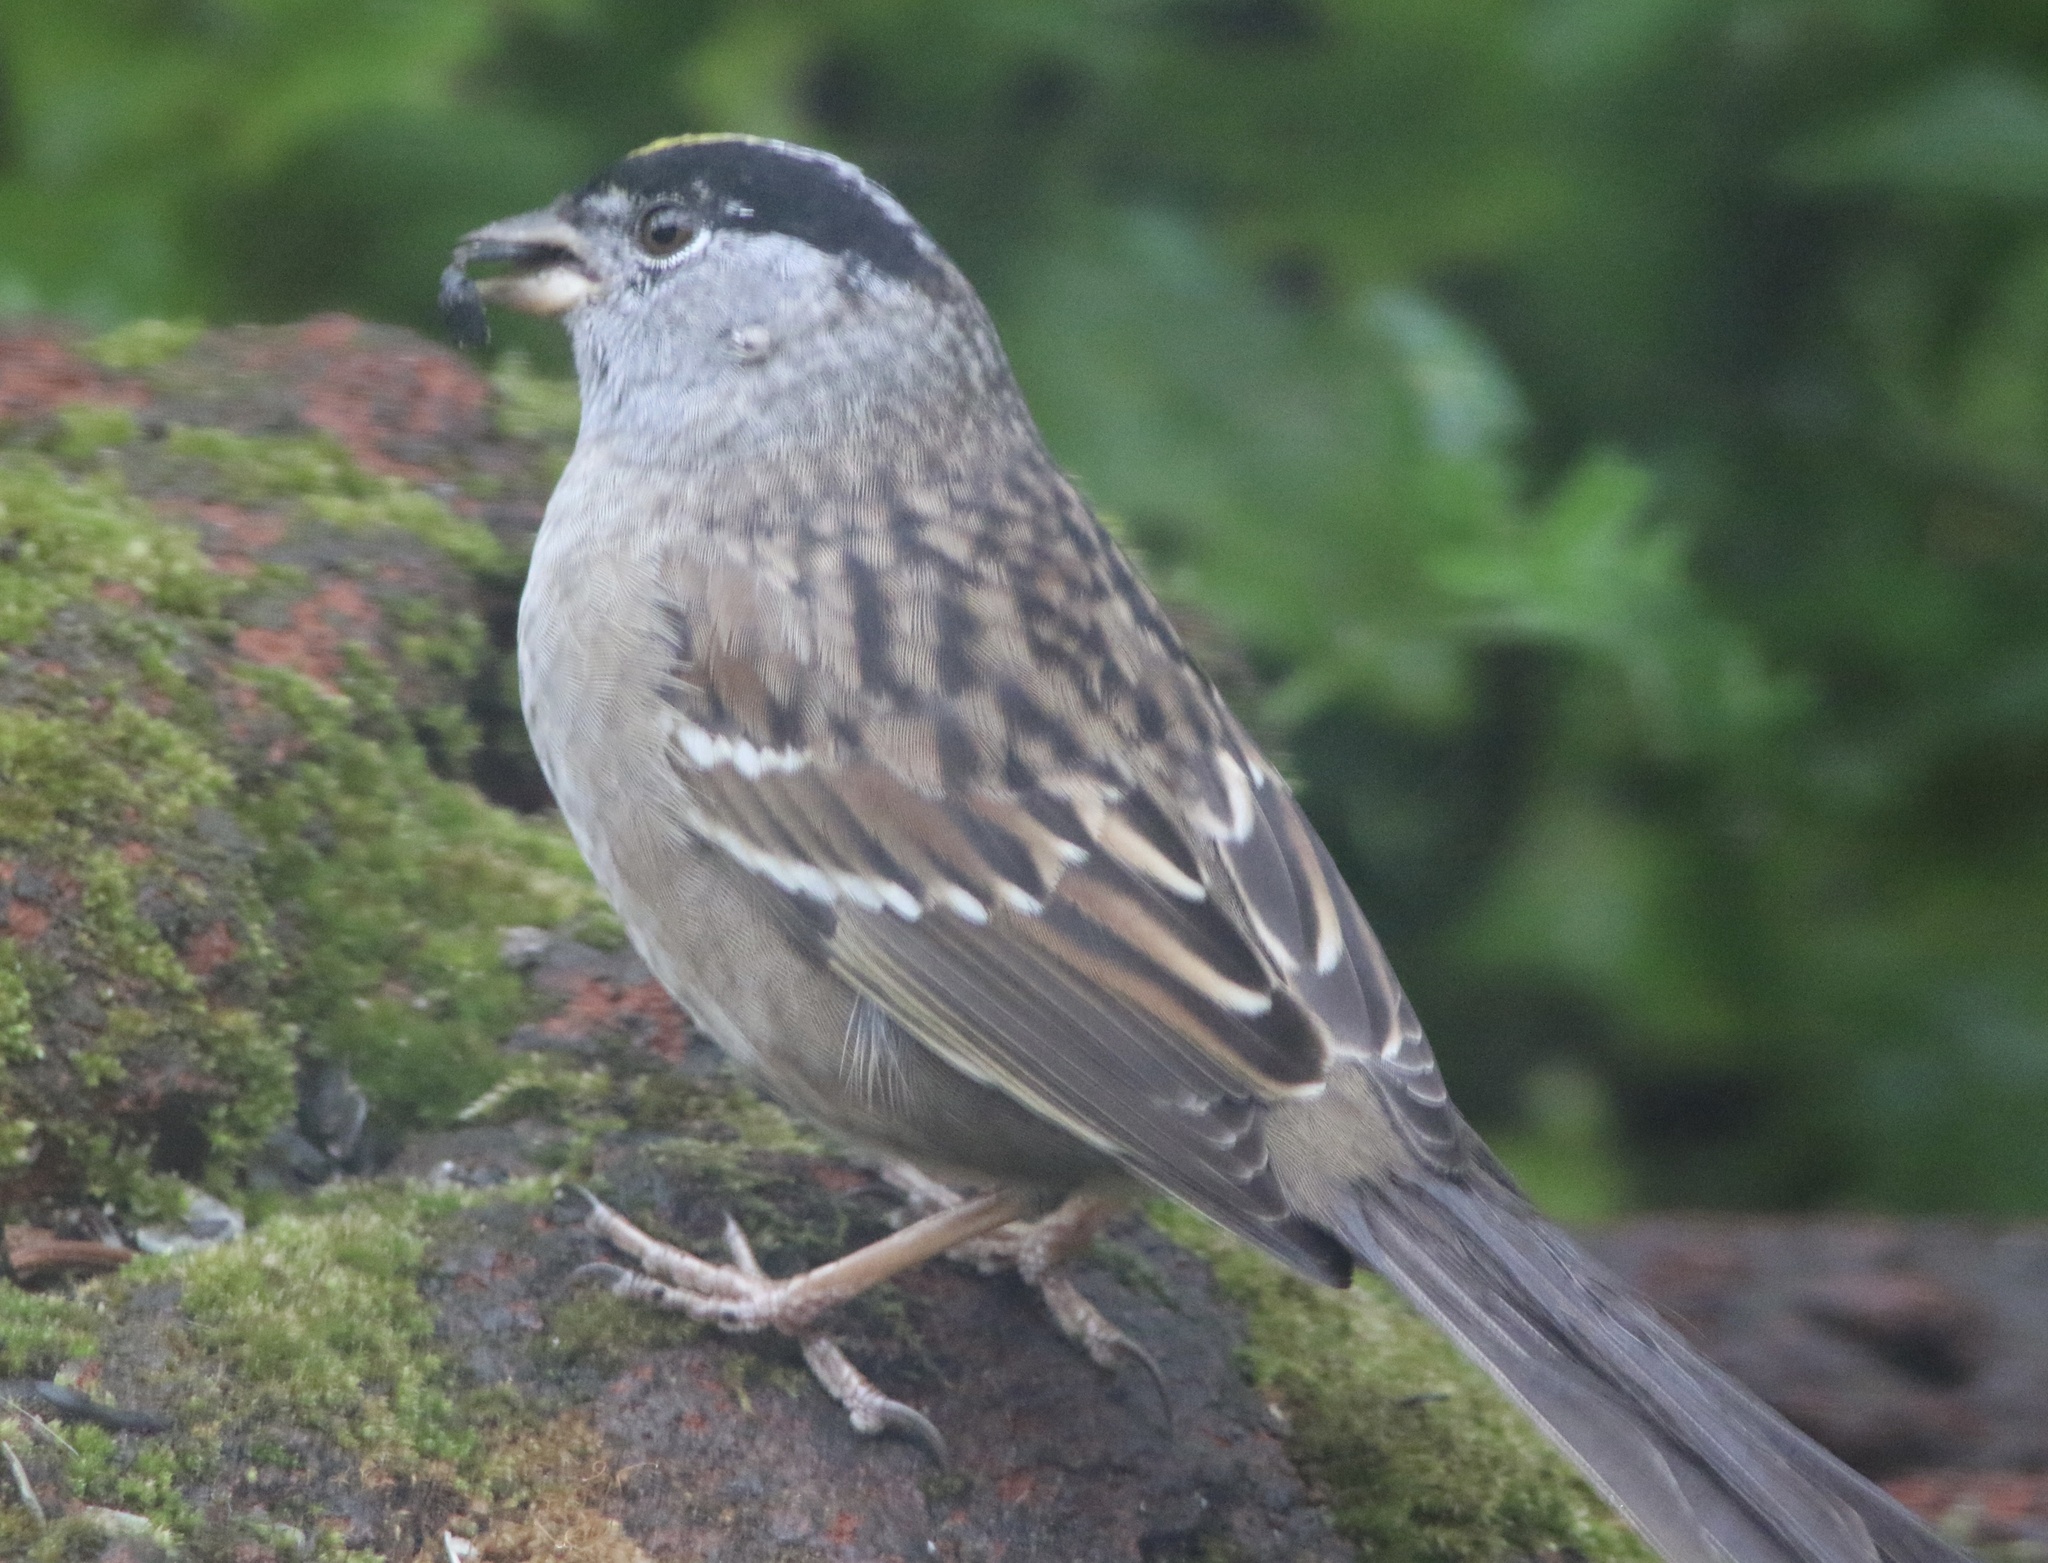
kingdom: Animalia
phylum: Chordata
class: Aves
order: Passeriformes
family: Passerellidae
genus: Zonotrichia
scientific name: Zonotrichia atricapilla
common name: Golden-crowned sparrow
